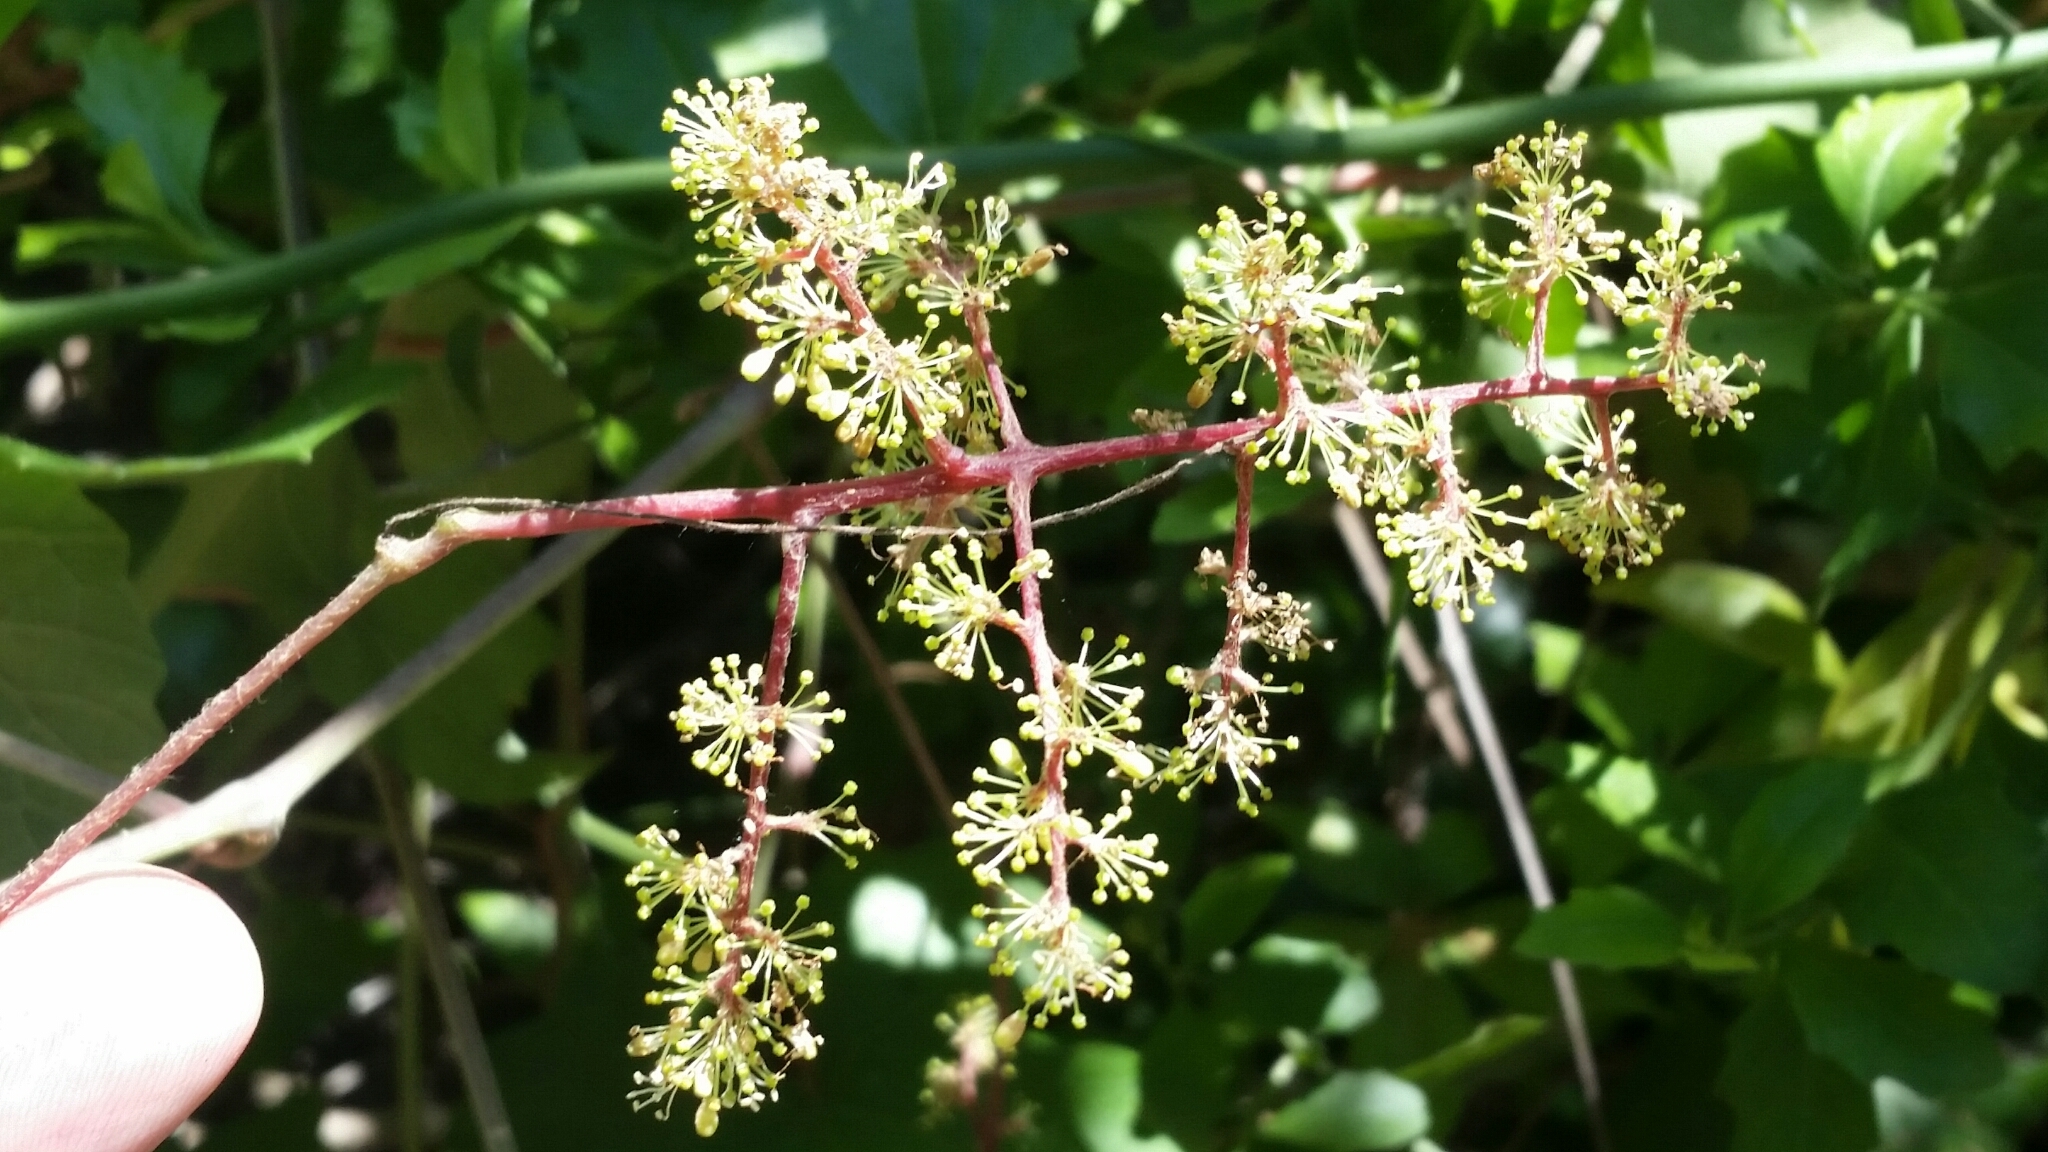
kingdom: Plantae
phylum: Tracheophyta
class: Magnoliopsida
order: Vitales
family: Vitaceae
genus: Vitis
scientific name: Vitis cinerea
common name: Ashy grape
